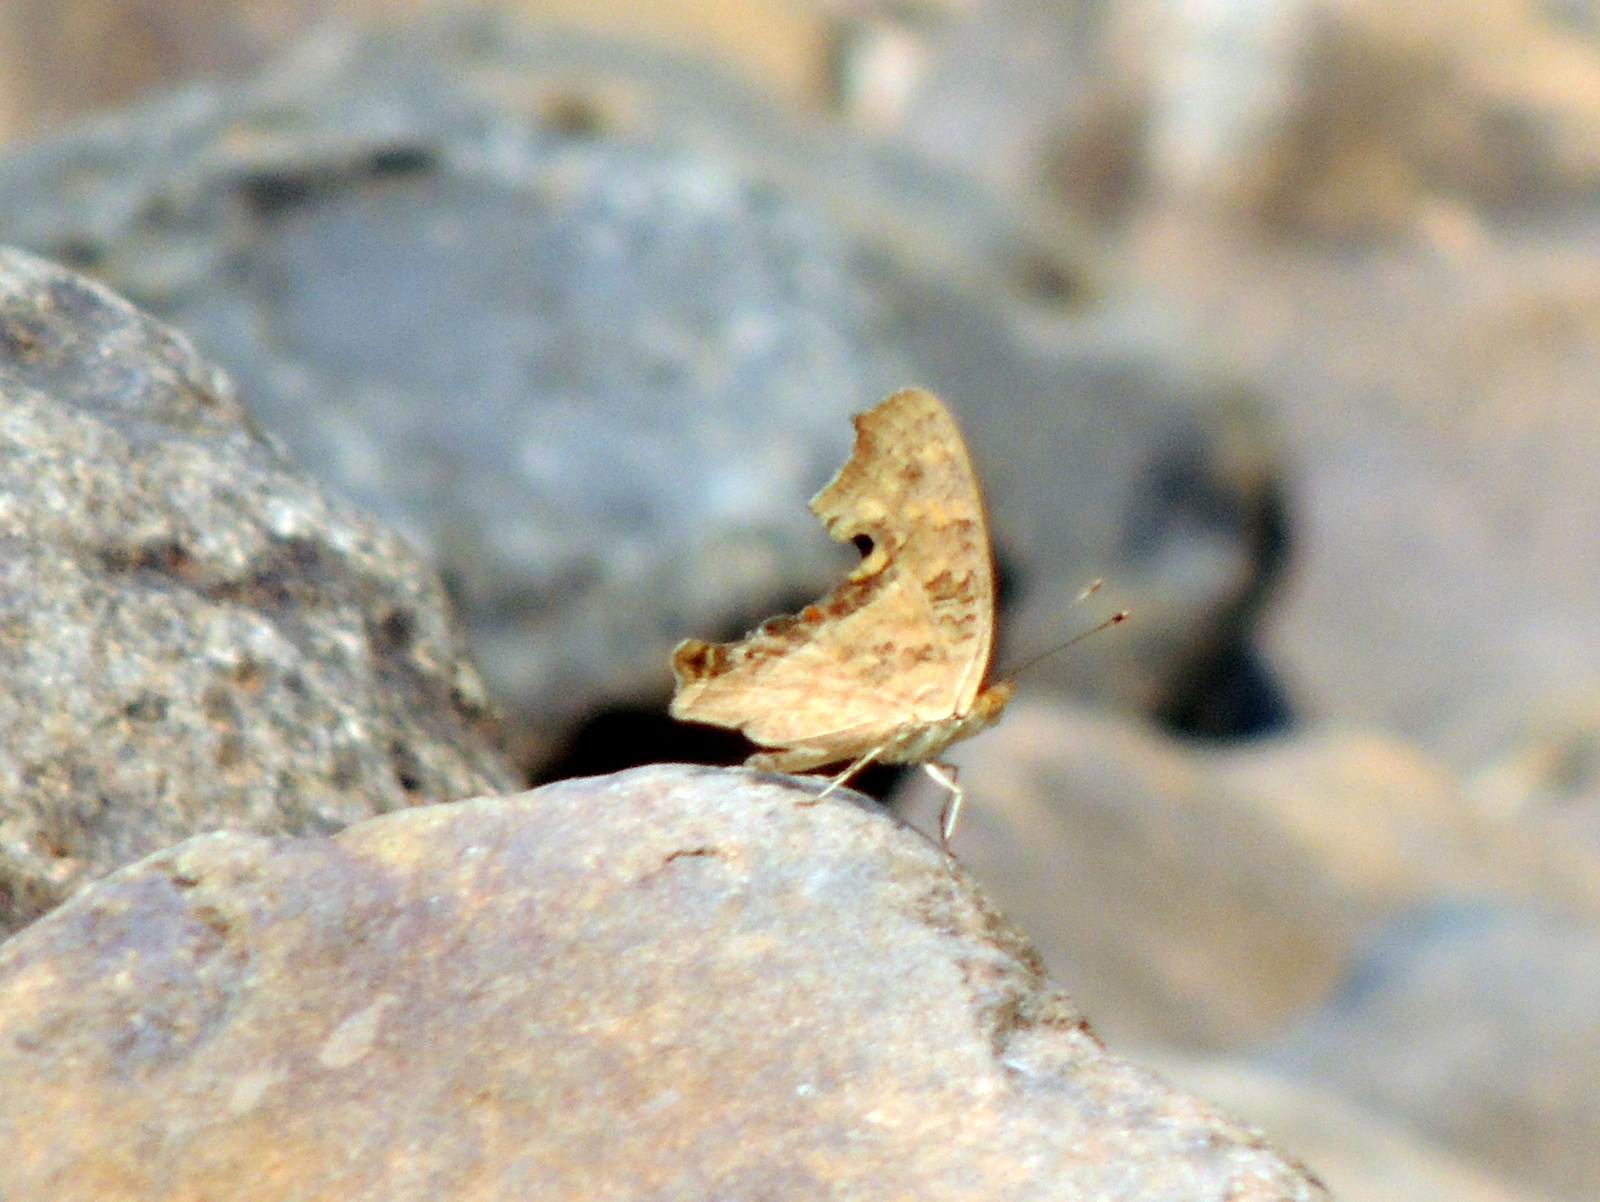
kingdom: Animalia
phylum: Arthropoda
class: Insecta
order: Lepidoptera
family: Nymphalidae
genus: Junonia
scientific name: Junonia lemonias
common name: Lemon pansy
